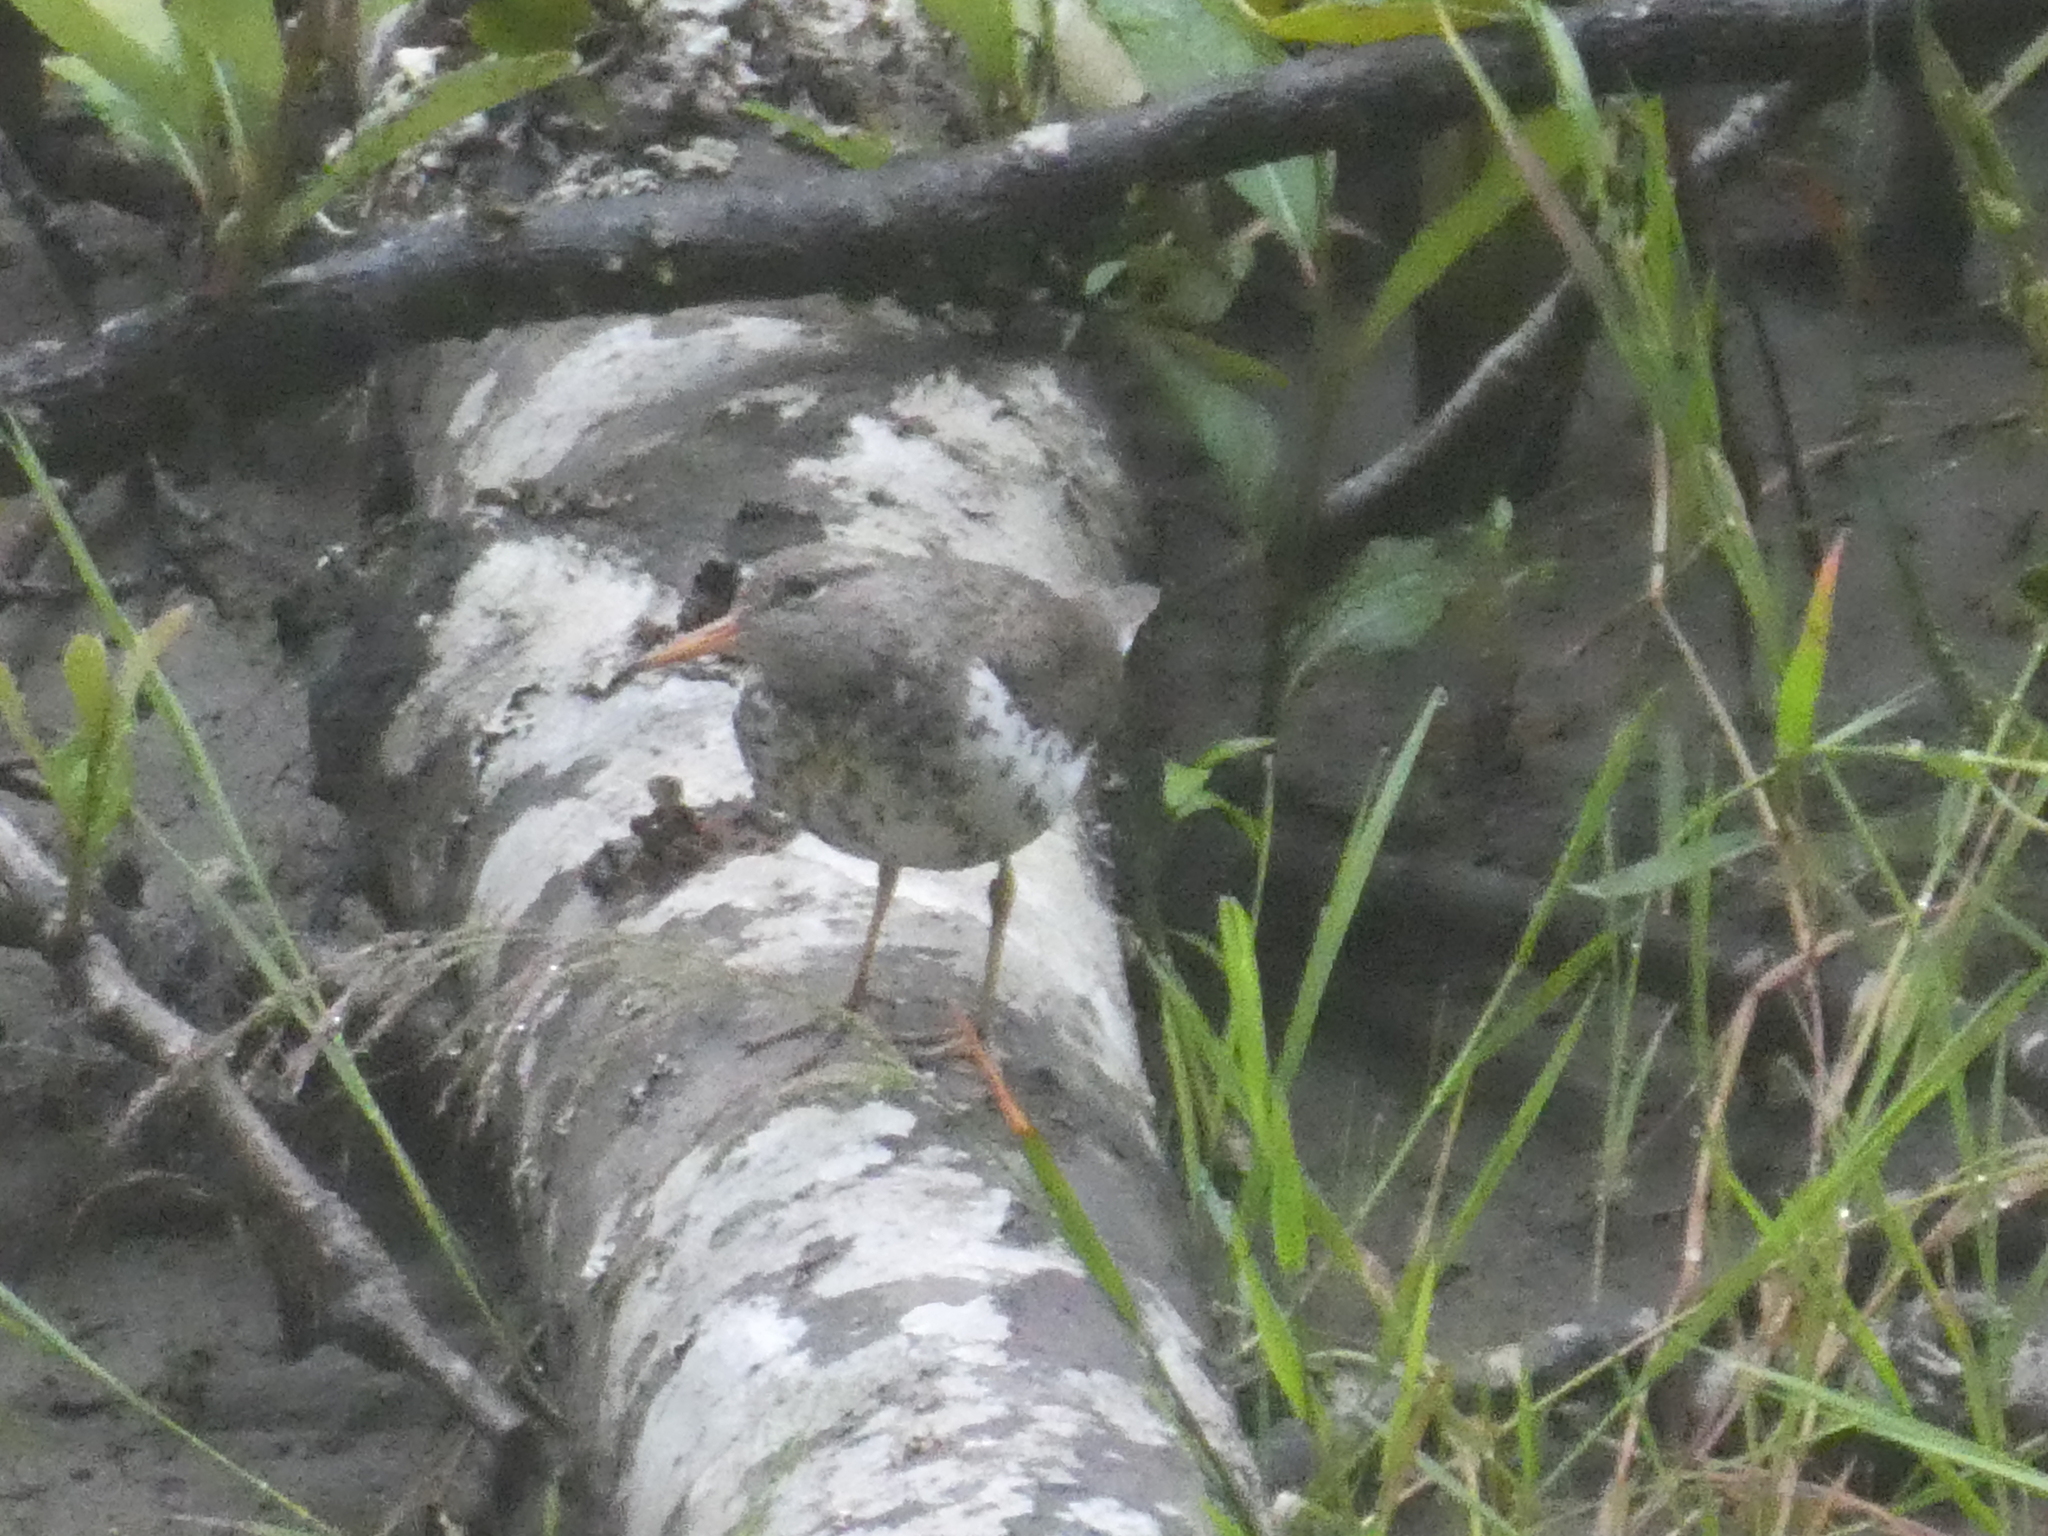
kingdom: Animalia
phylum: Chordata
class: Aves
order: Charadriiformes
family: Scolopacidae
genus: Actitis
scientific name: Actitis macularius
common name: Spotted sandpiper
